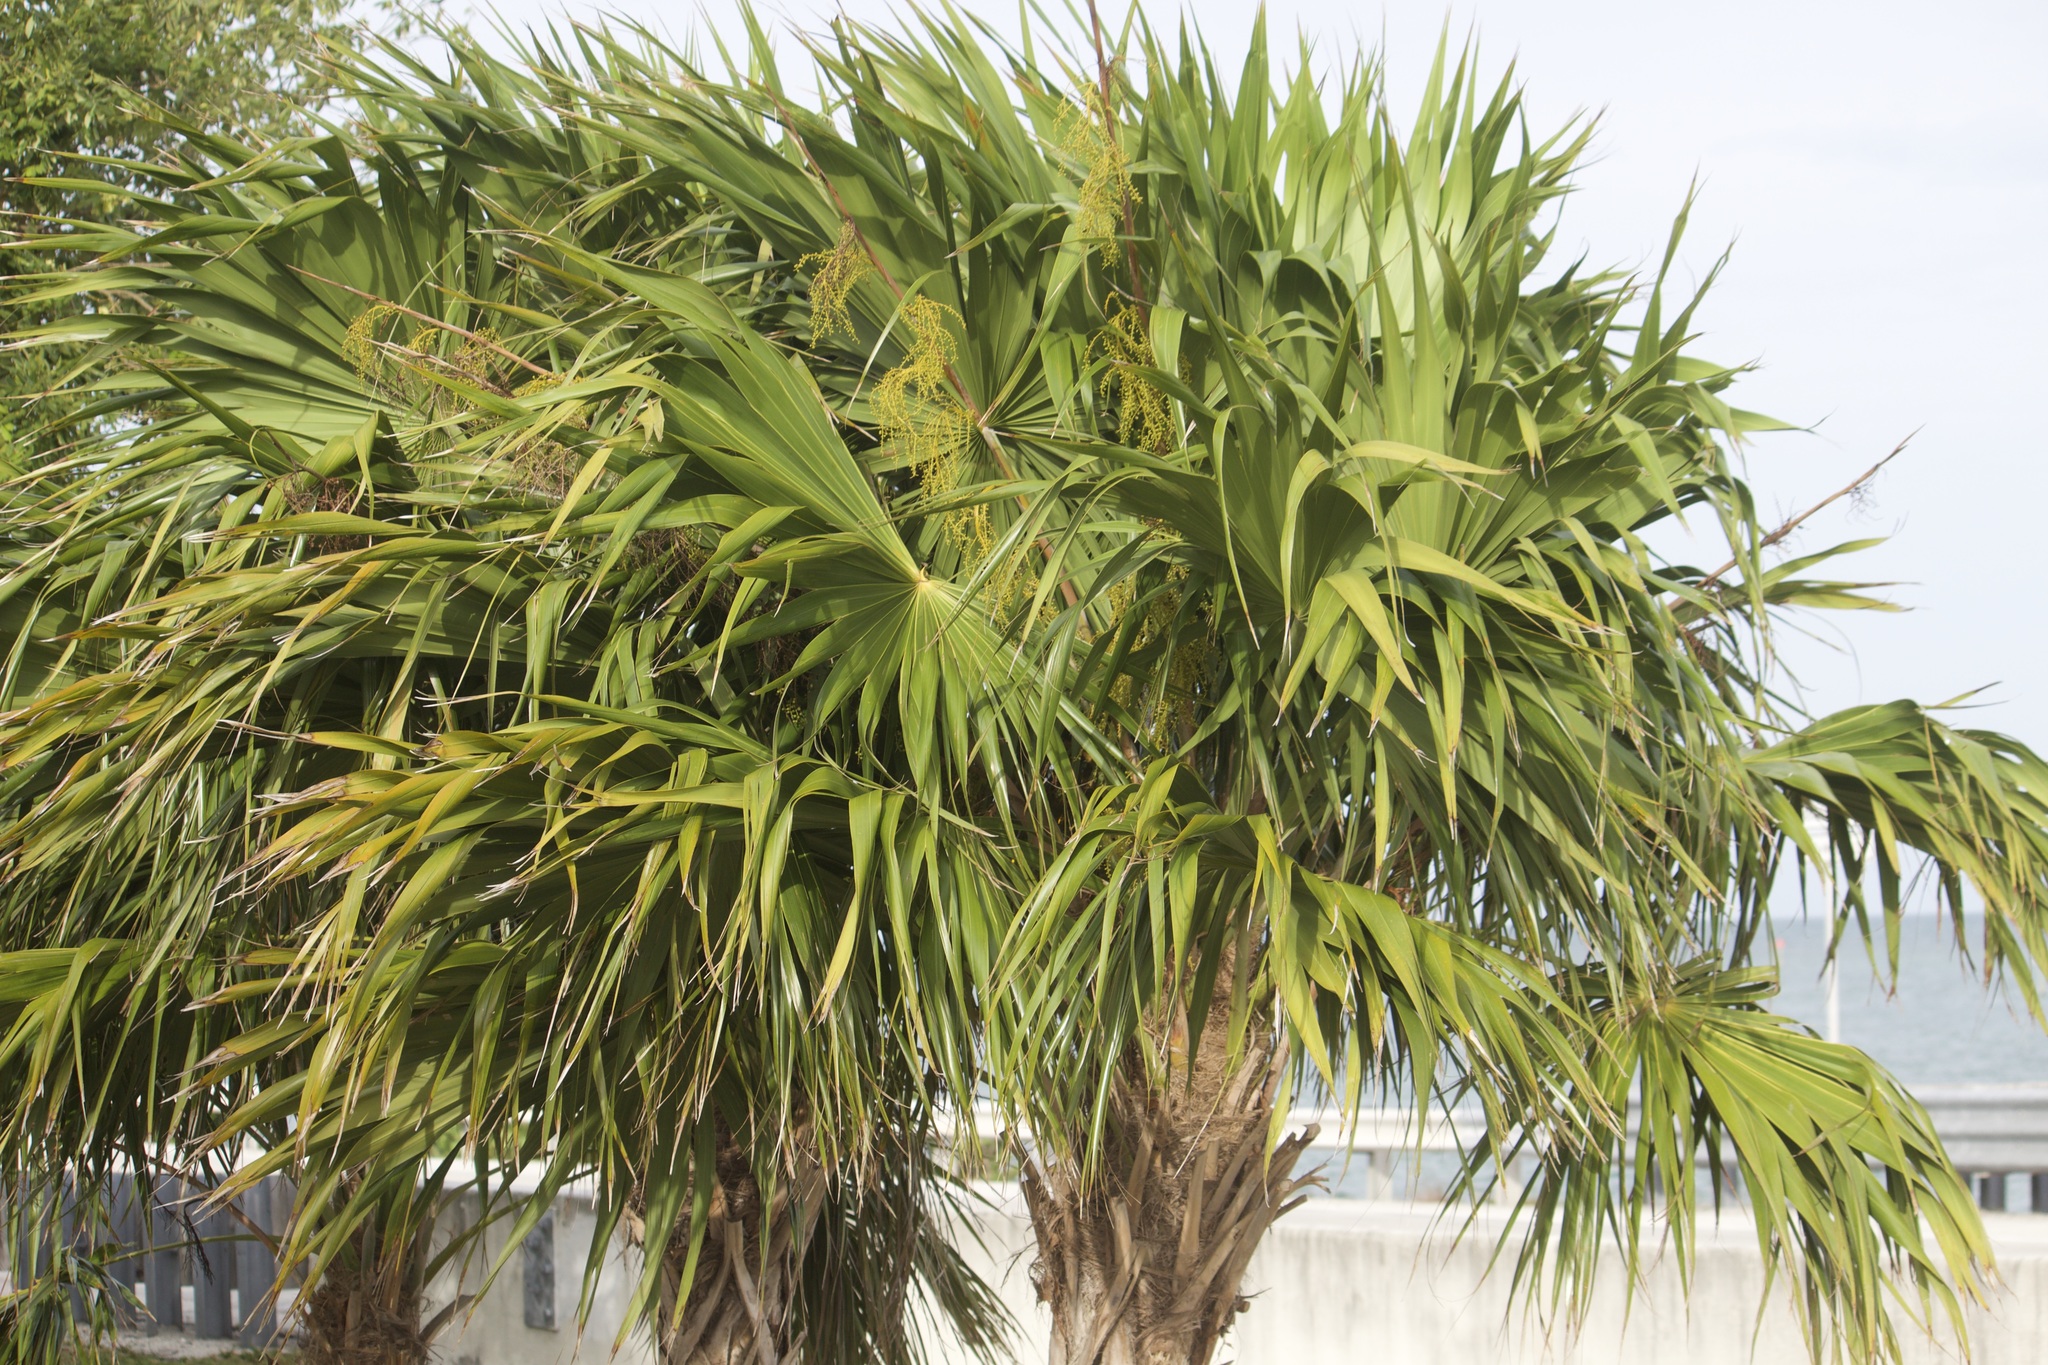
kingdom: Plantae
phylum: Tracheophyta
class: Liliopsida
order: Arecales
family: Arecaceae
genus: Thrinax
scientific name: Thrinax radiata
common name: Florida thatch
